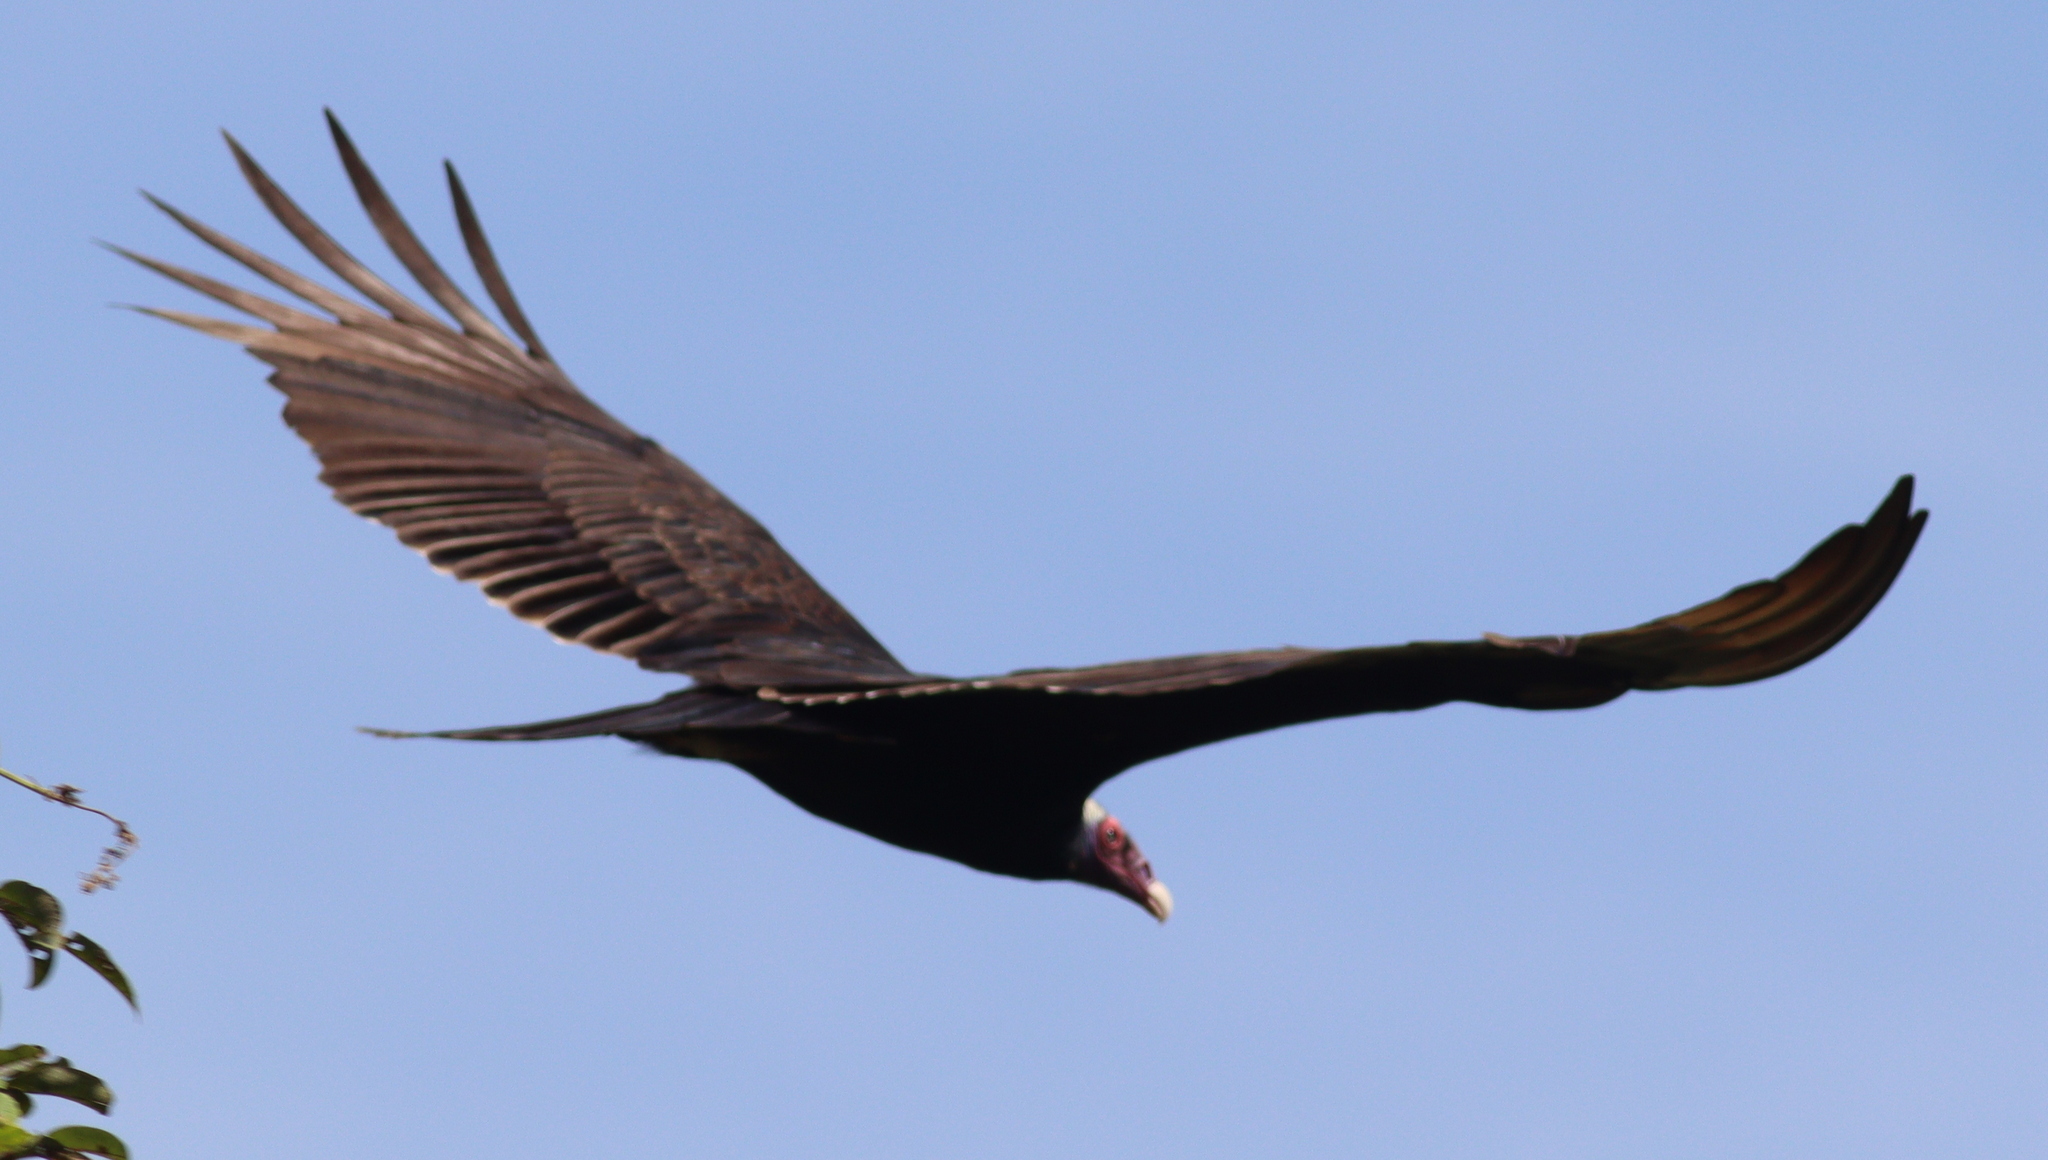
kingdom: Animalia
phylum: Chordata
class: Aves
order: Accipitriformes
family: Cathartidae
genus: Cathartes
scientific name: Cathartes aura
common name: Turkey vulture
